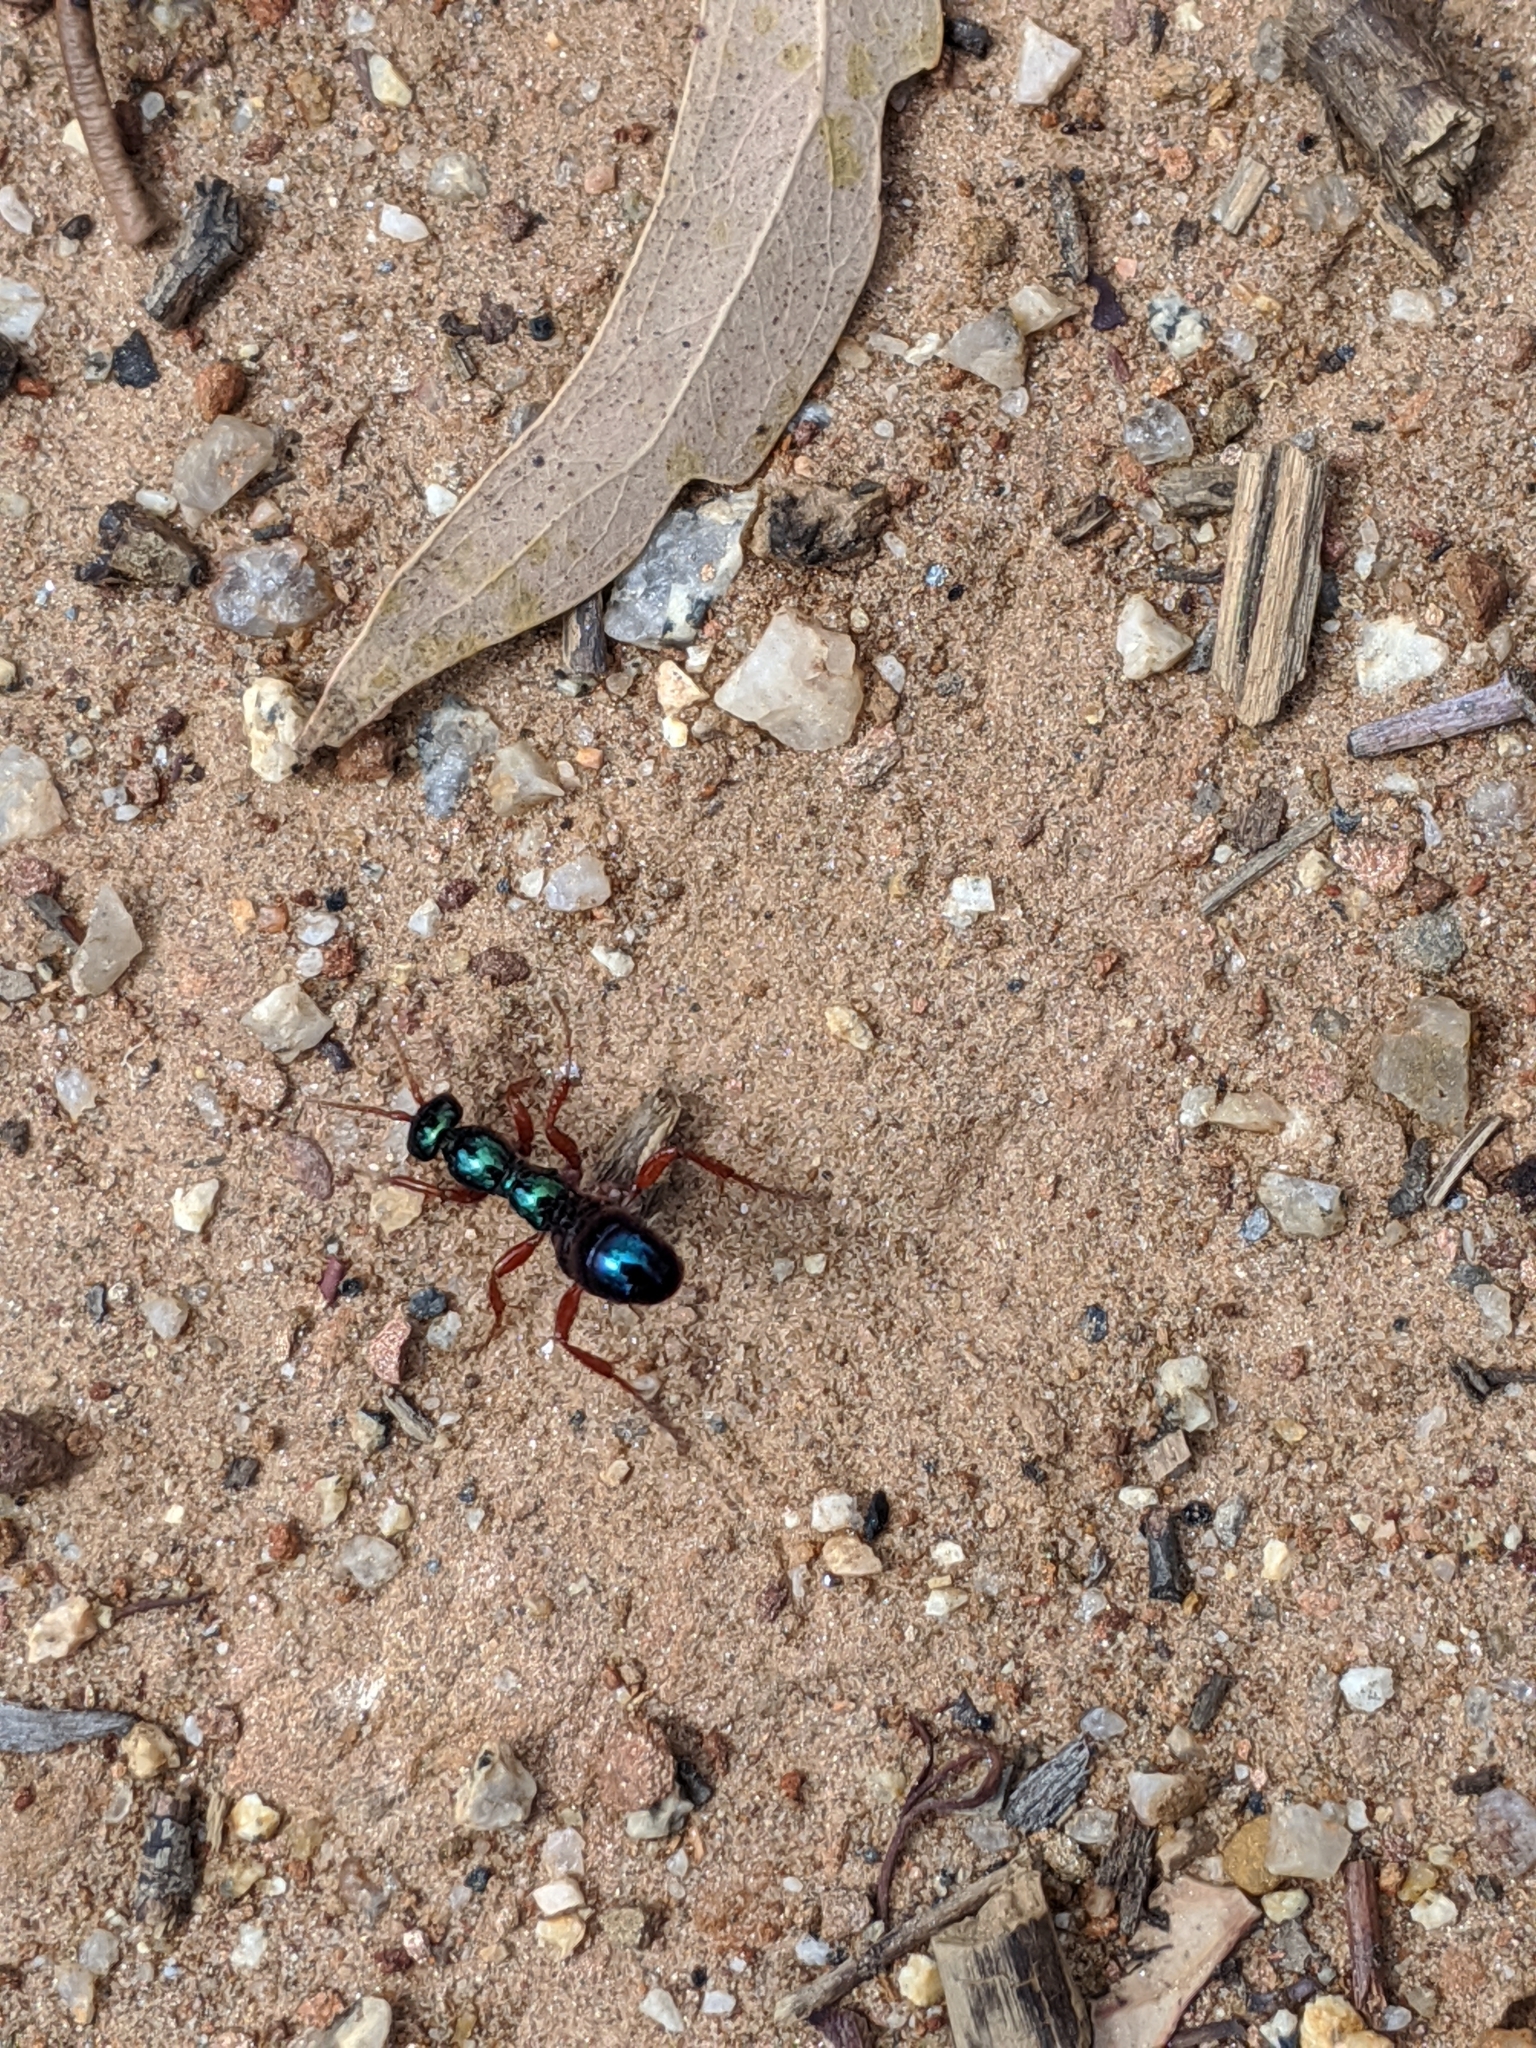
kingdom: Animalia
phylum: Arthropoda
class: Insecta
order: Hymenoptera
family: Tiphiidae
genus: Diamma
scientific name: Diamma
